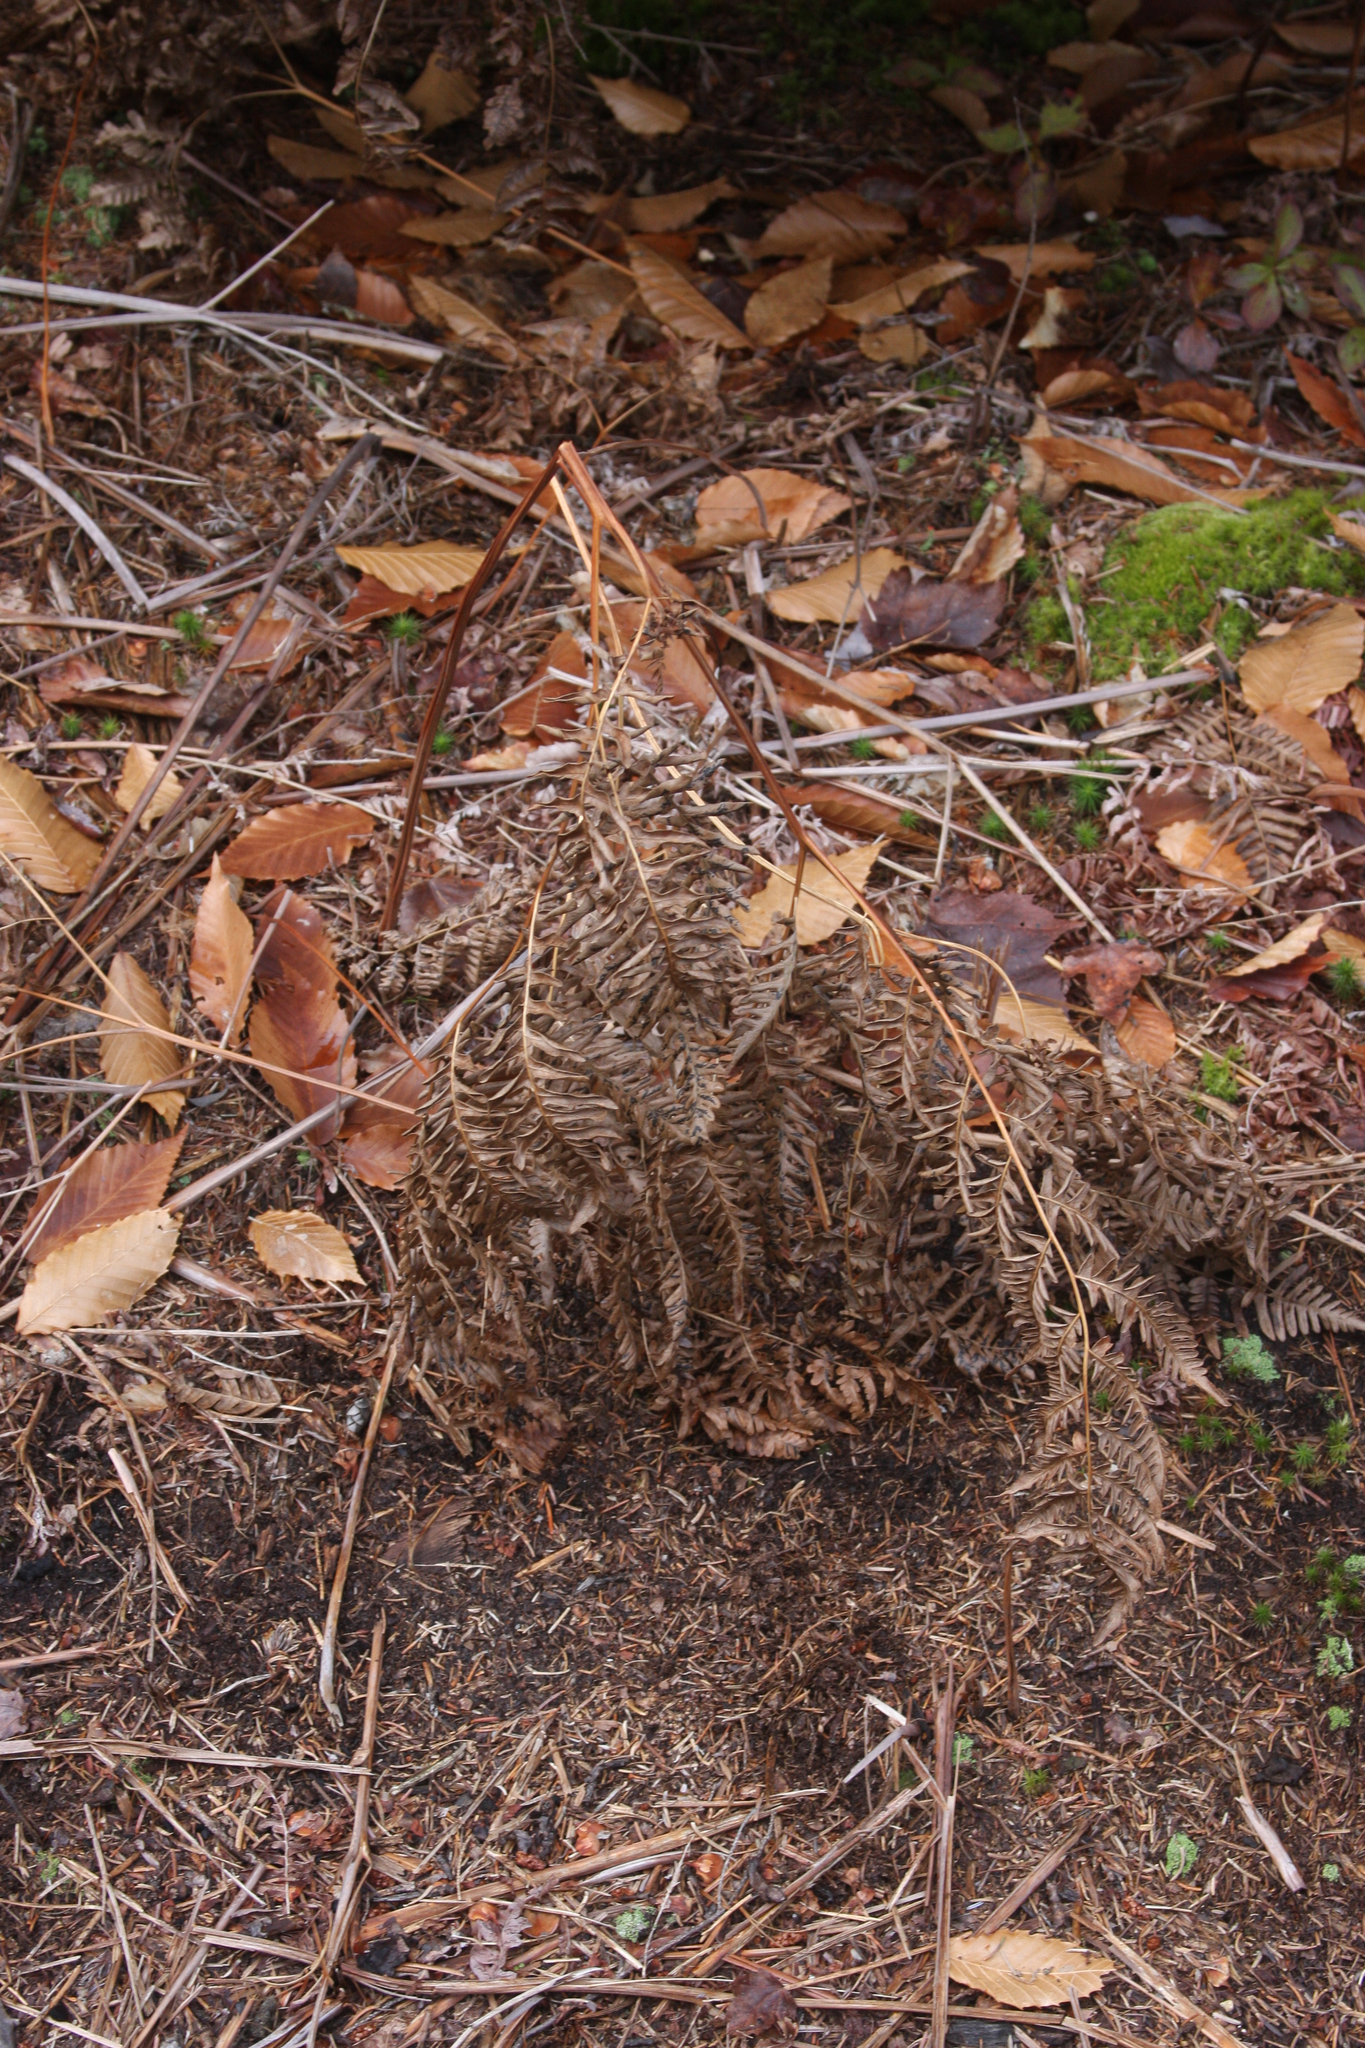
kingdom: Plantae
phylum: Tracheophyta
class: Polypodiopsida
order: Polypodiales
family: Dennstaedtiaceae
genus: Pteridium
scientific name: Pteridium aquilinum
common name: Bracken
